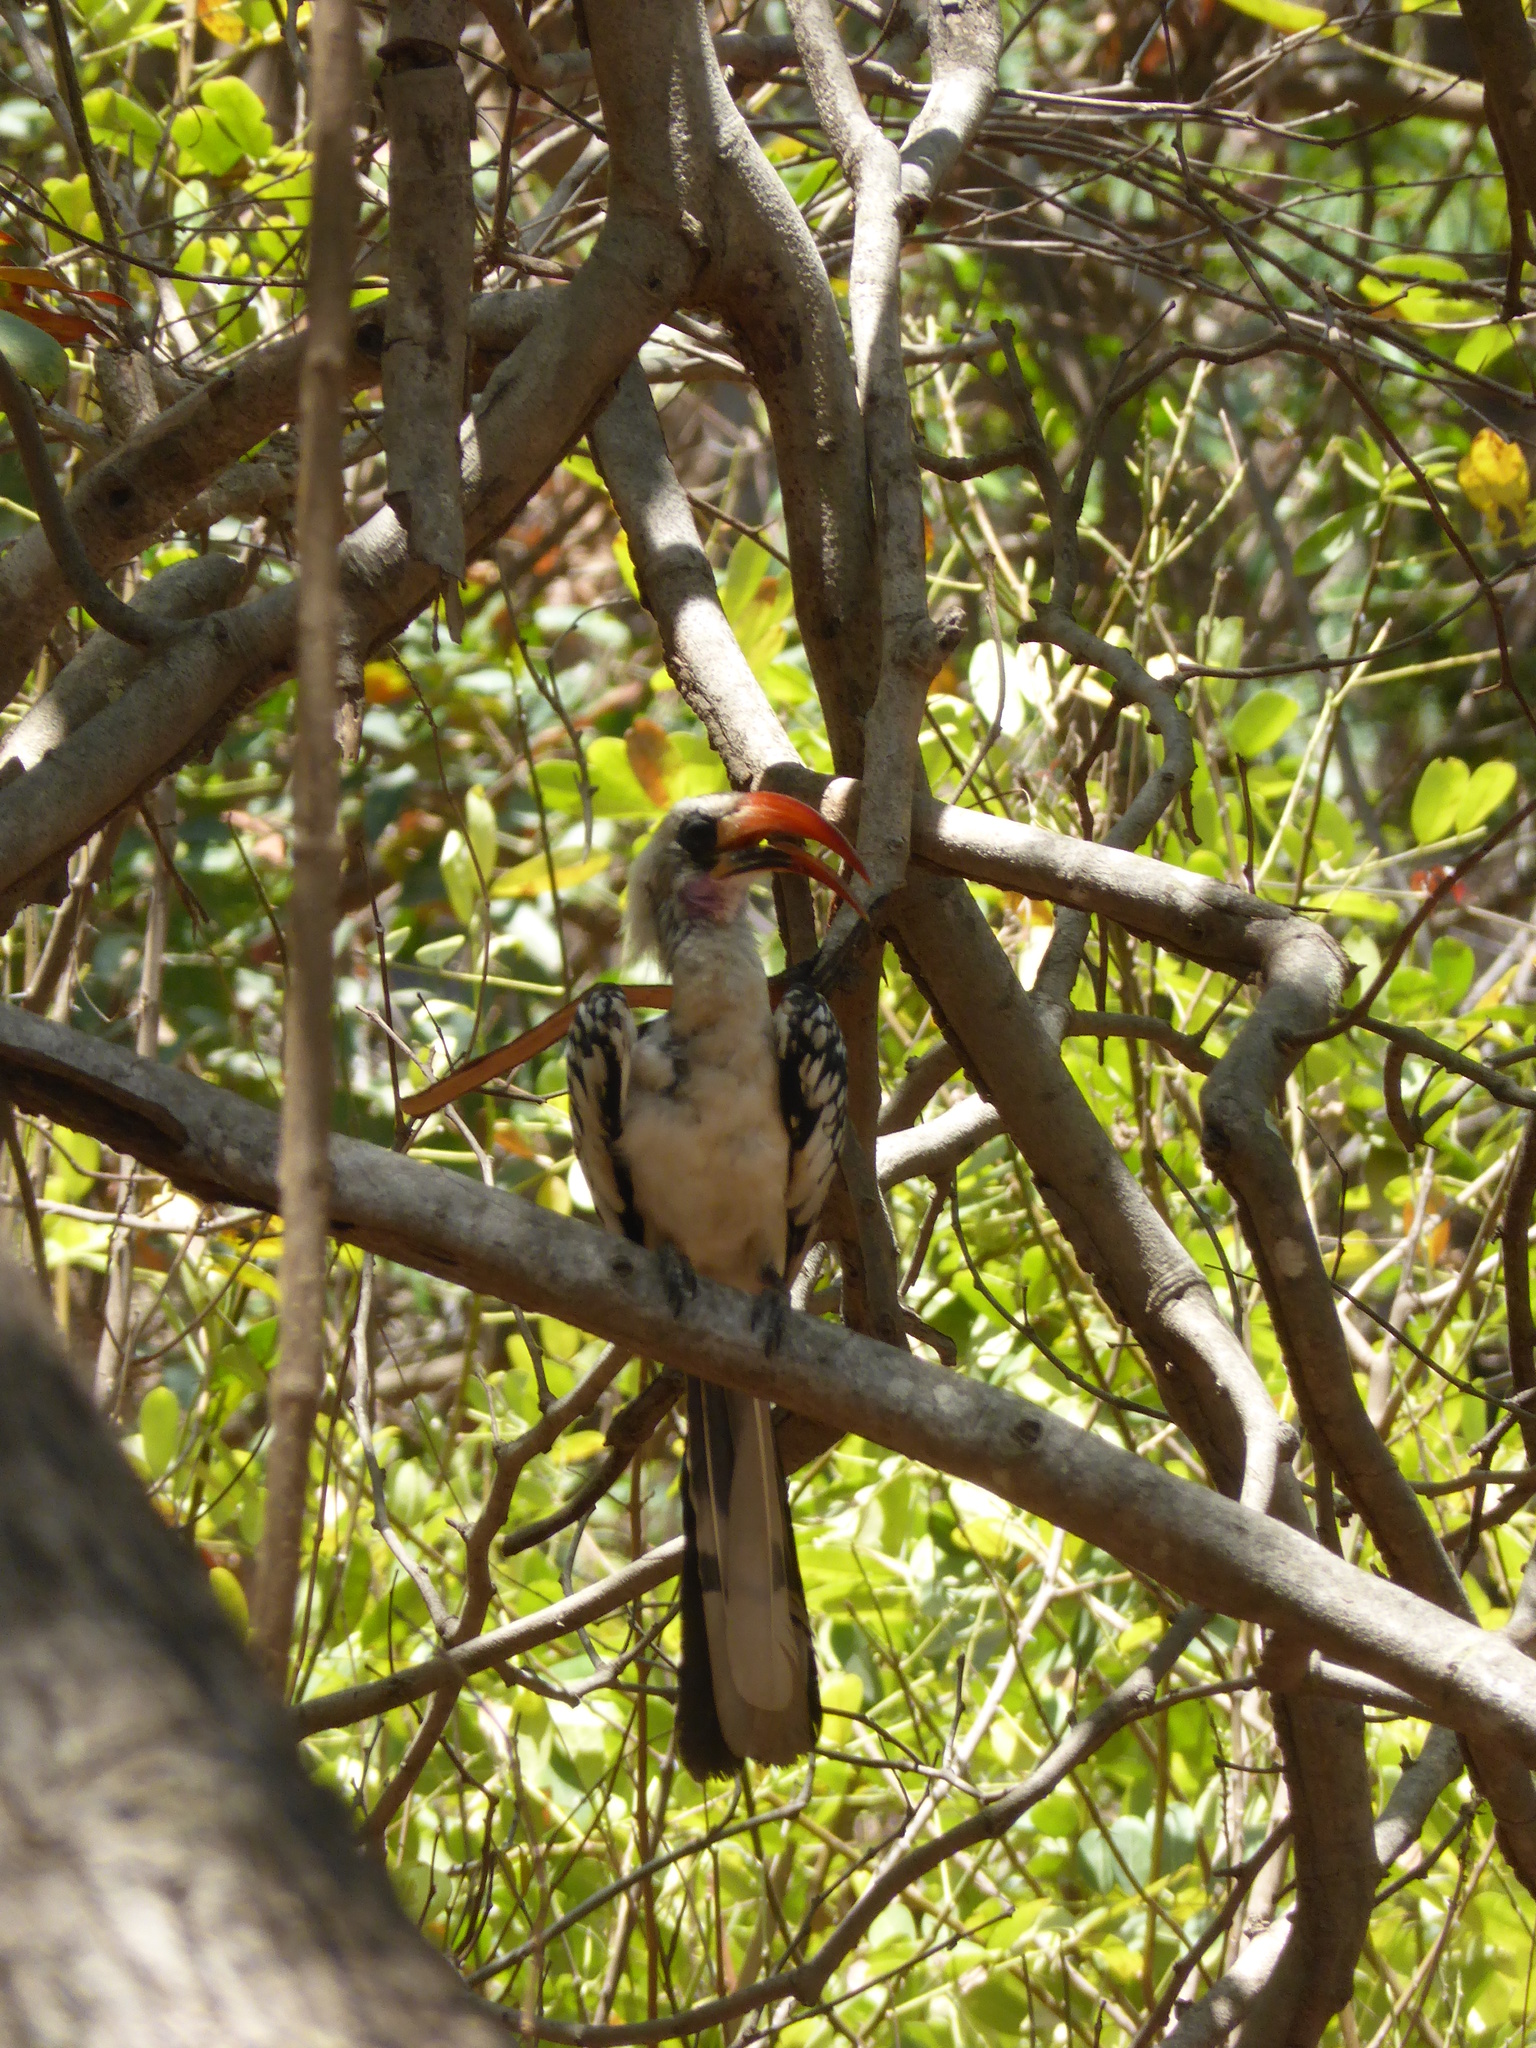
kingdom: Animalia
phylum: Chordata
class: Aves
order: Bucerotiformes
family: Bucerotidae
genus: Tockus
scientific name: Tockus kempi
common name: Western red-billed hornbill
